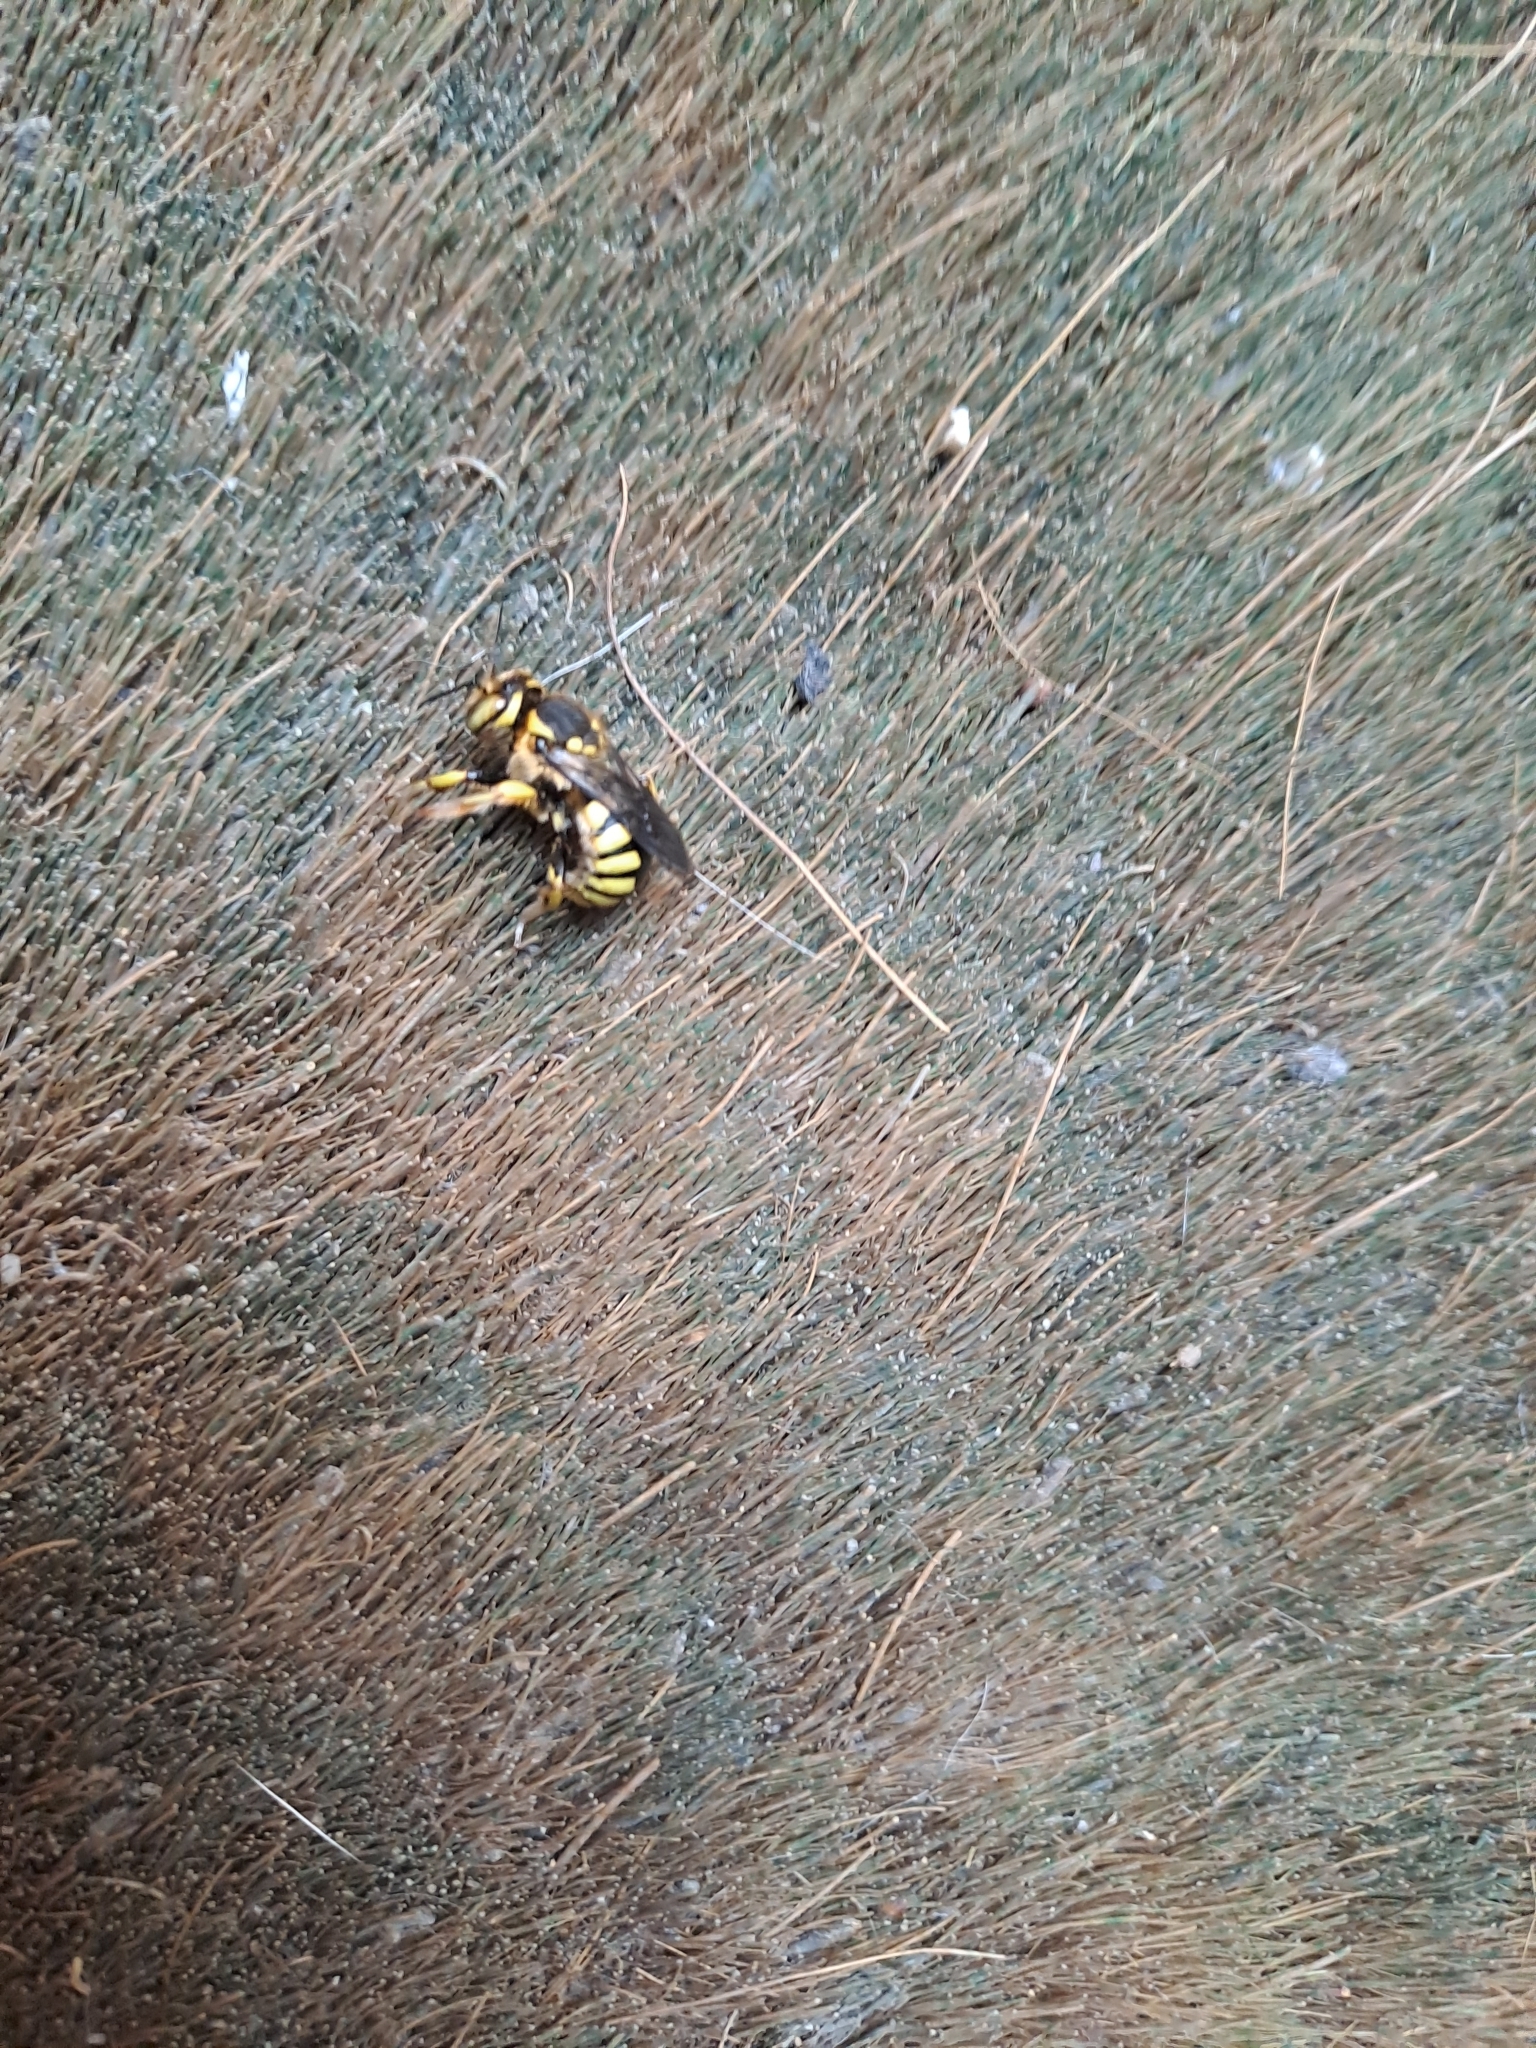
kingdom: Animalia
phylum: Arthropoda
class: Insecta
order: Hymenoptera
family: Megachilidae
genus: Anthidium
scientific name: Anthidium florentinum
